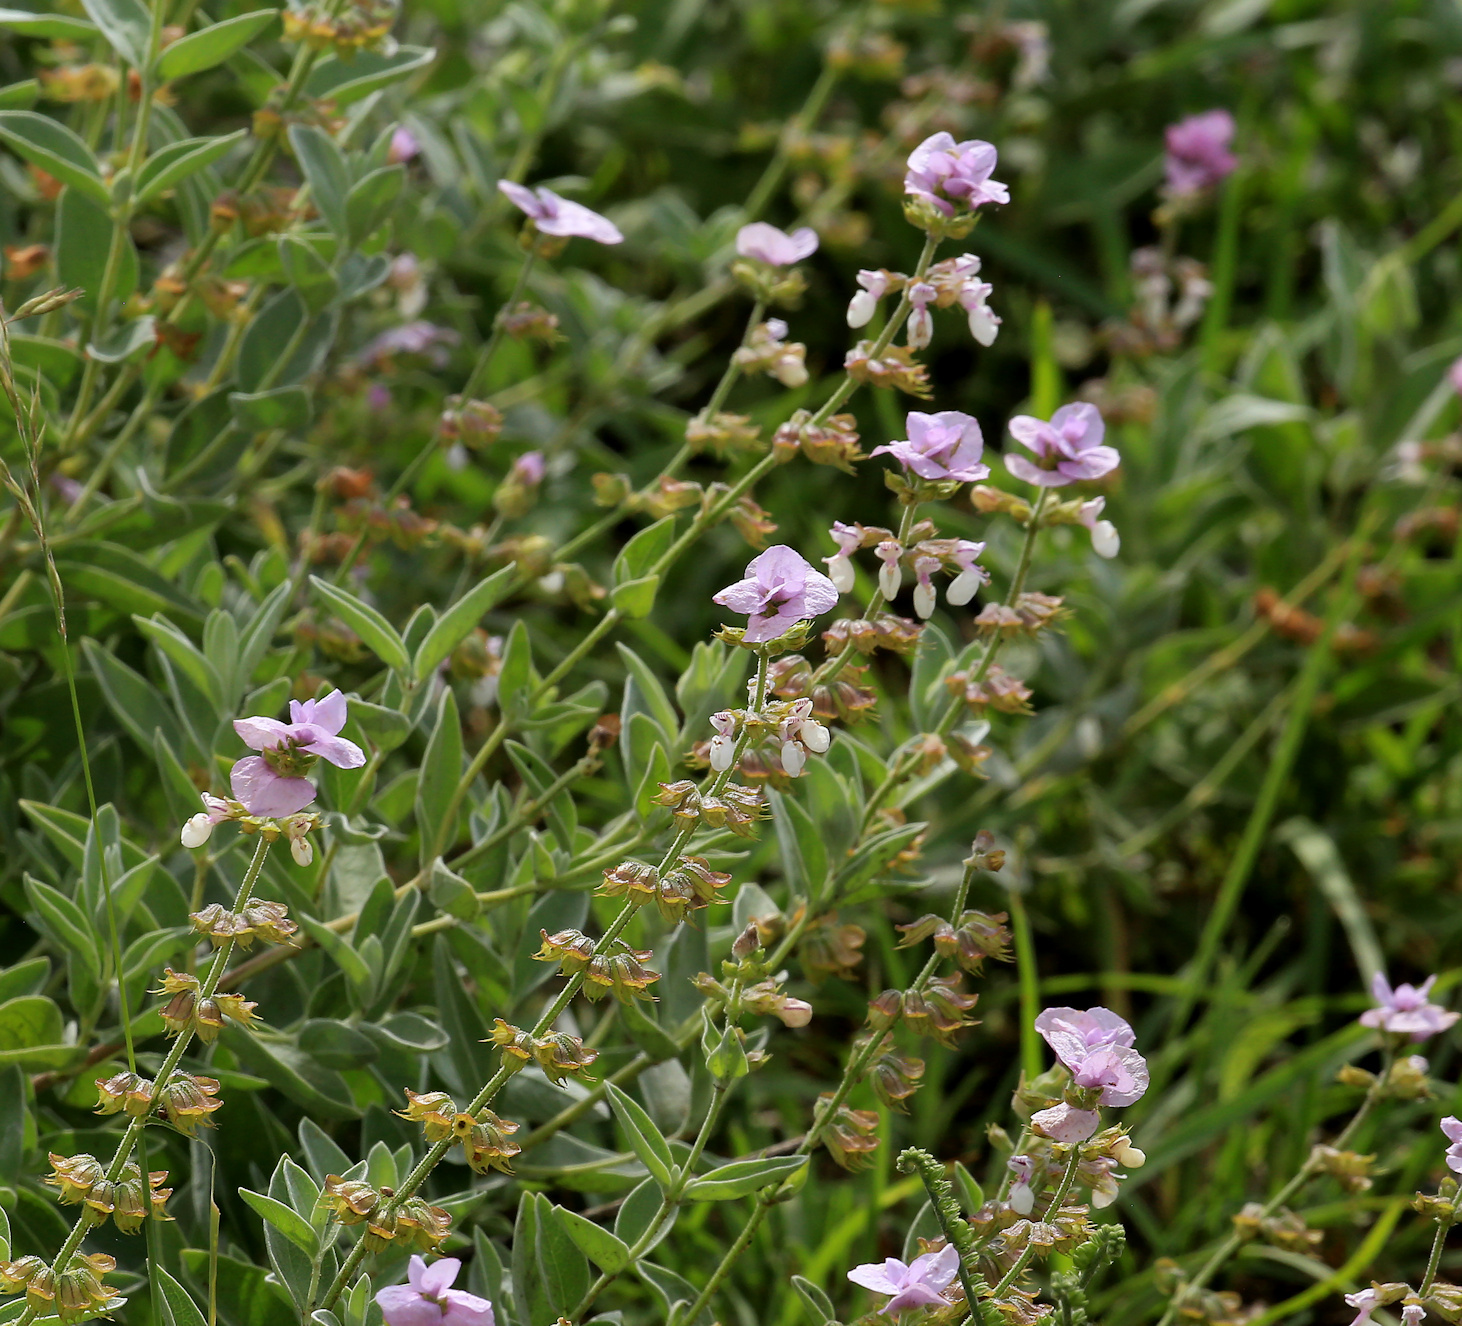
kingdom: Plantae
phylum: Tracheophyta
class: Magnoliopsida
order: Lamiales
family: Lamiaceae
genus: Syncolostemon
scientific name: Syncolostemon elliottii
